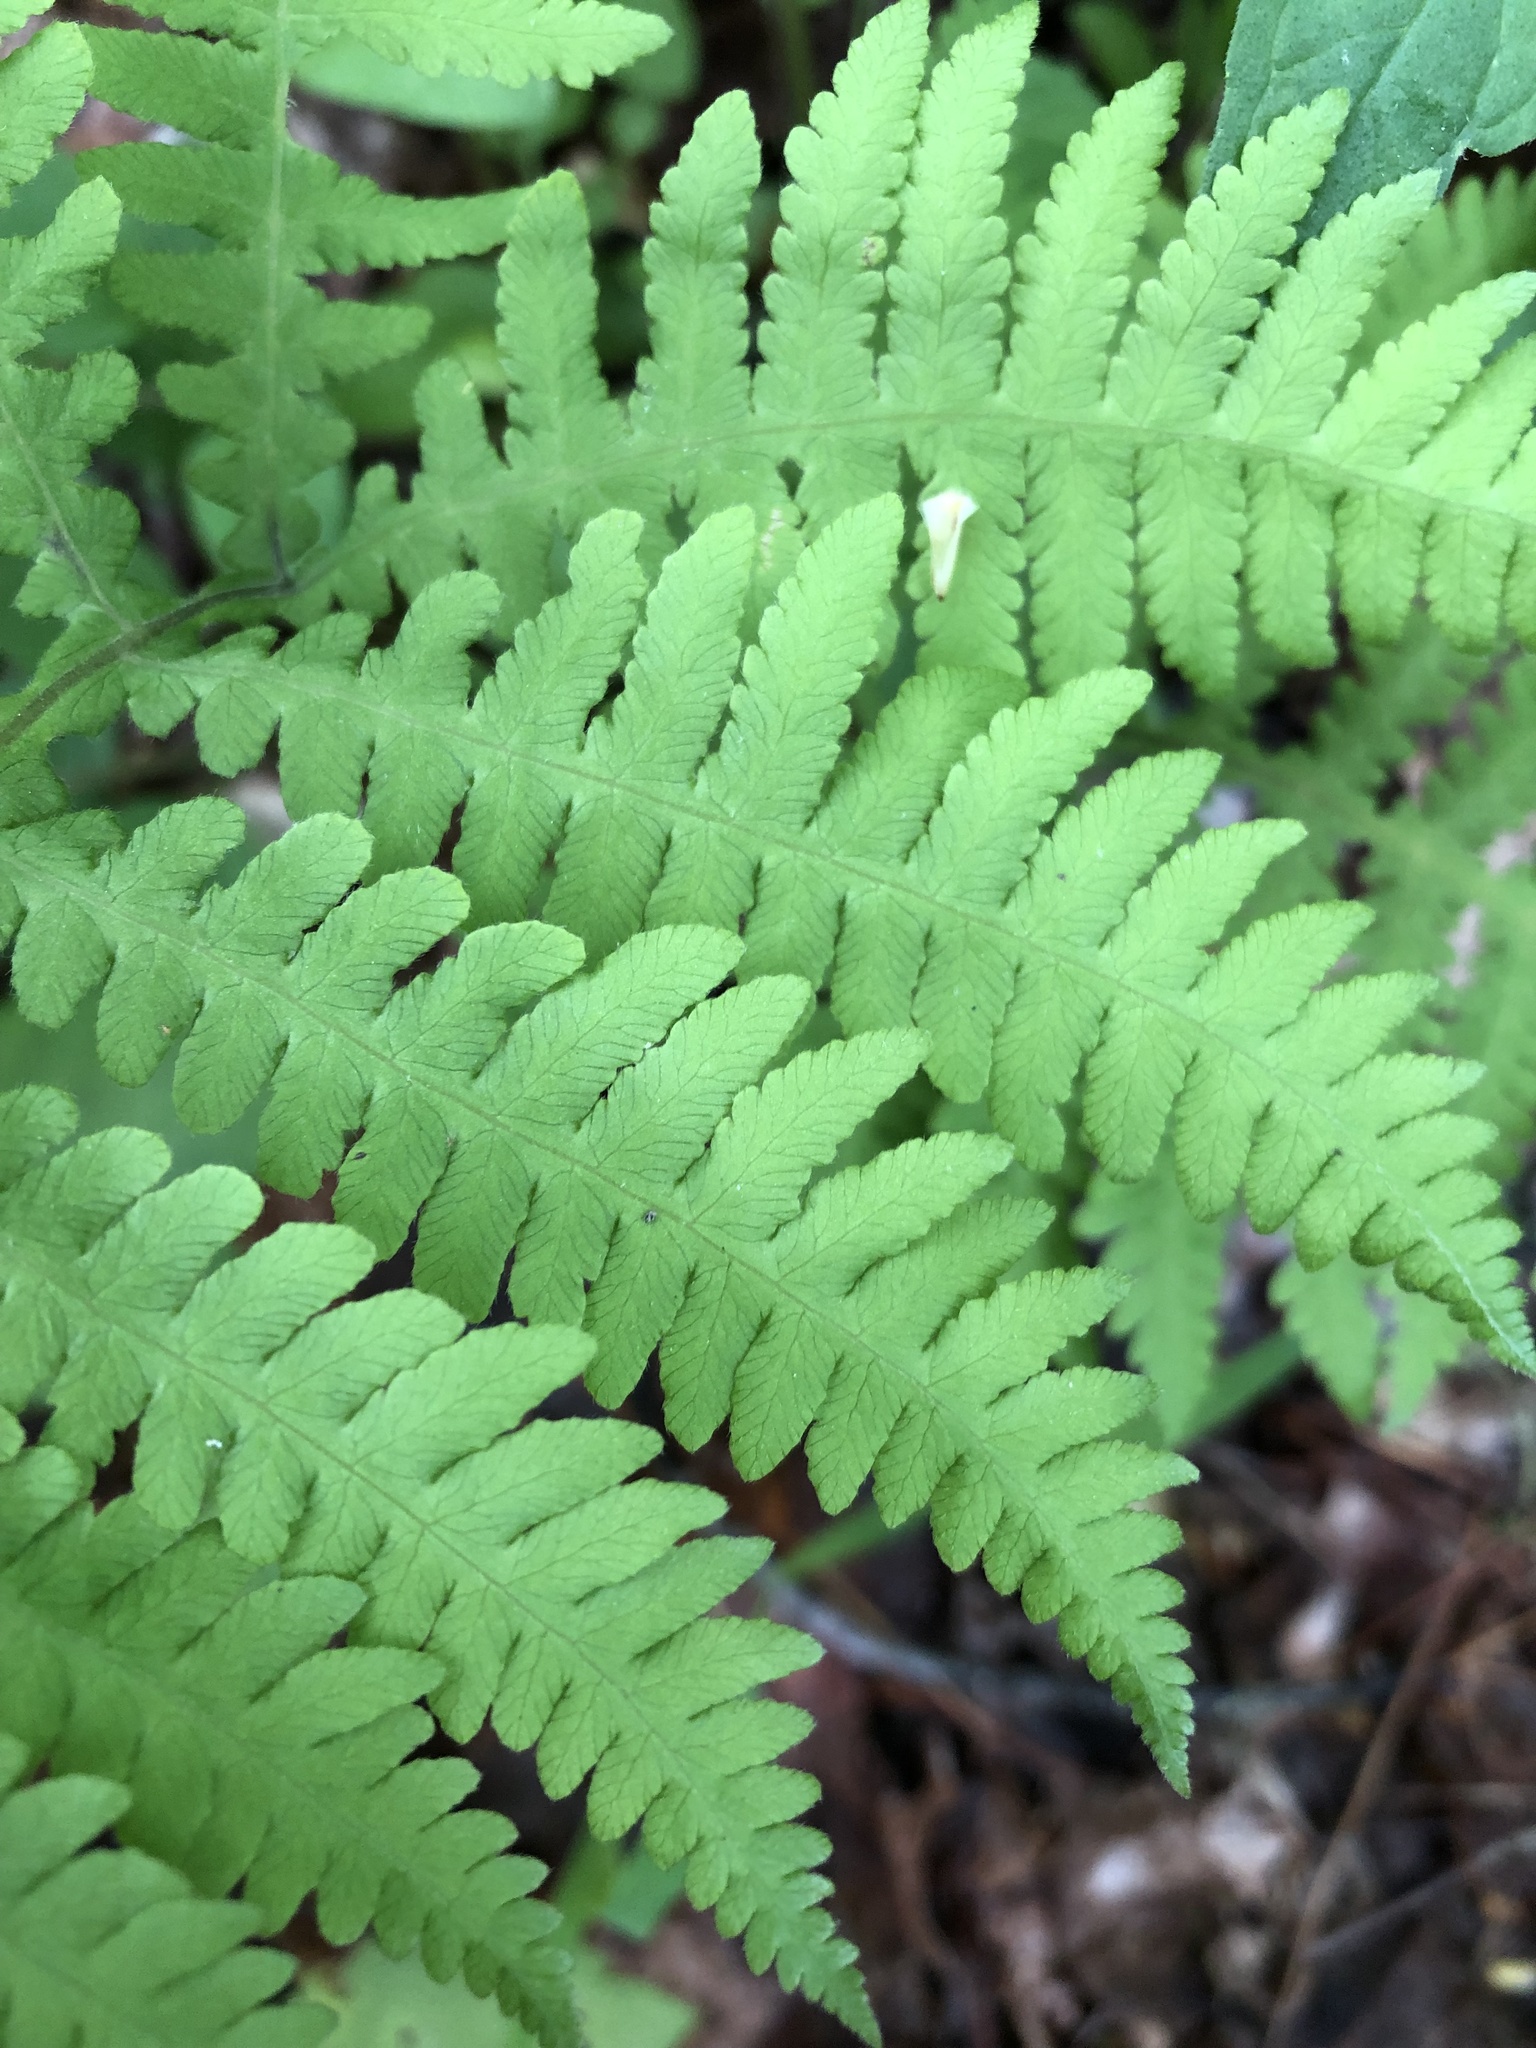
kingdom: Plantae
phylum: Tracheophyta
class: Polypodiopsida
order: Polypodiales
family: Thelypteridaceae
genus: Phegopteris
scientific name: Phegopteris hexagonoptera
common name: Broad beech fern
